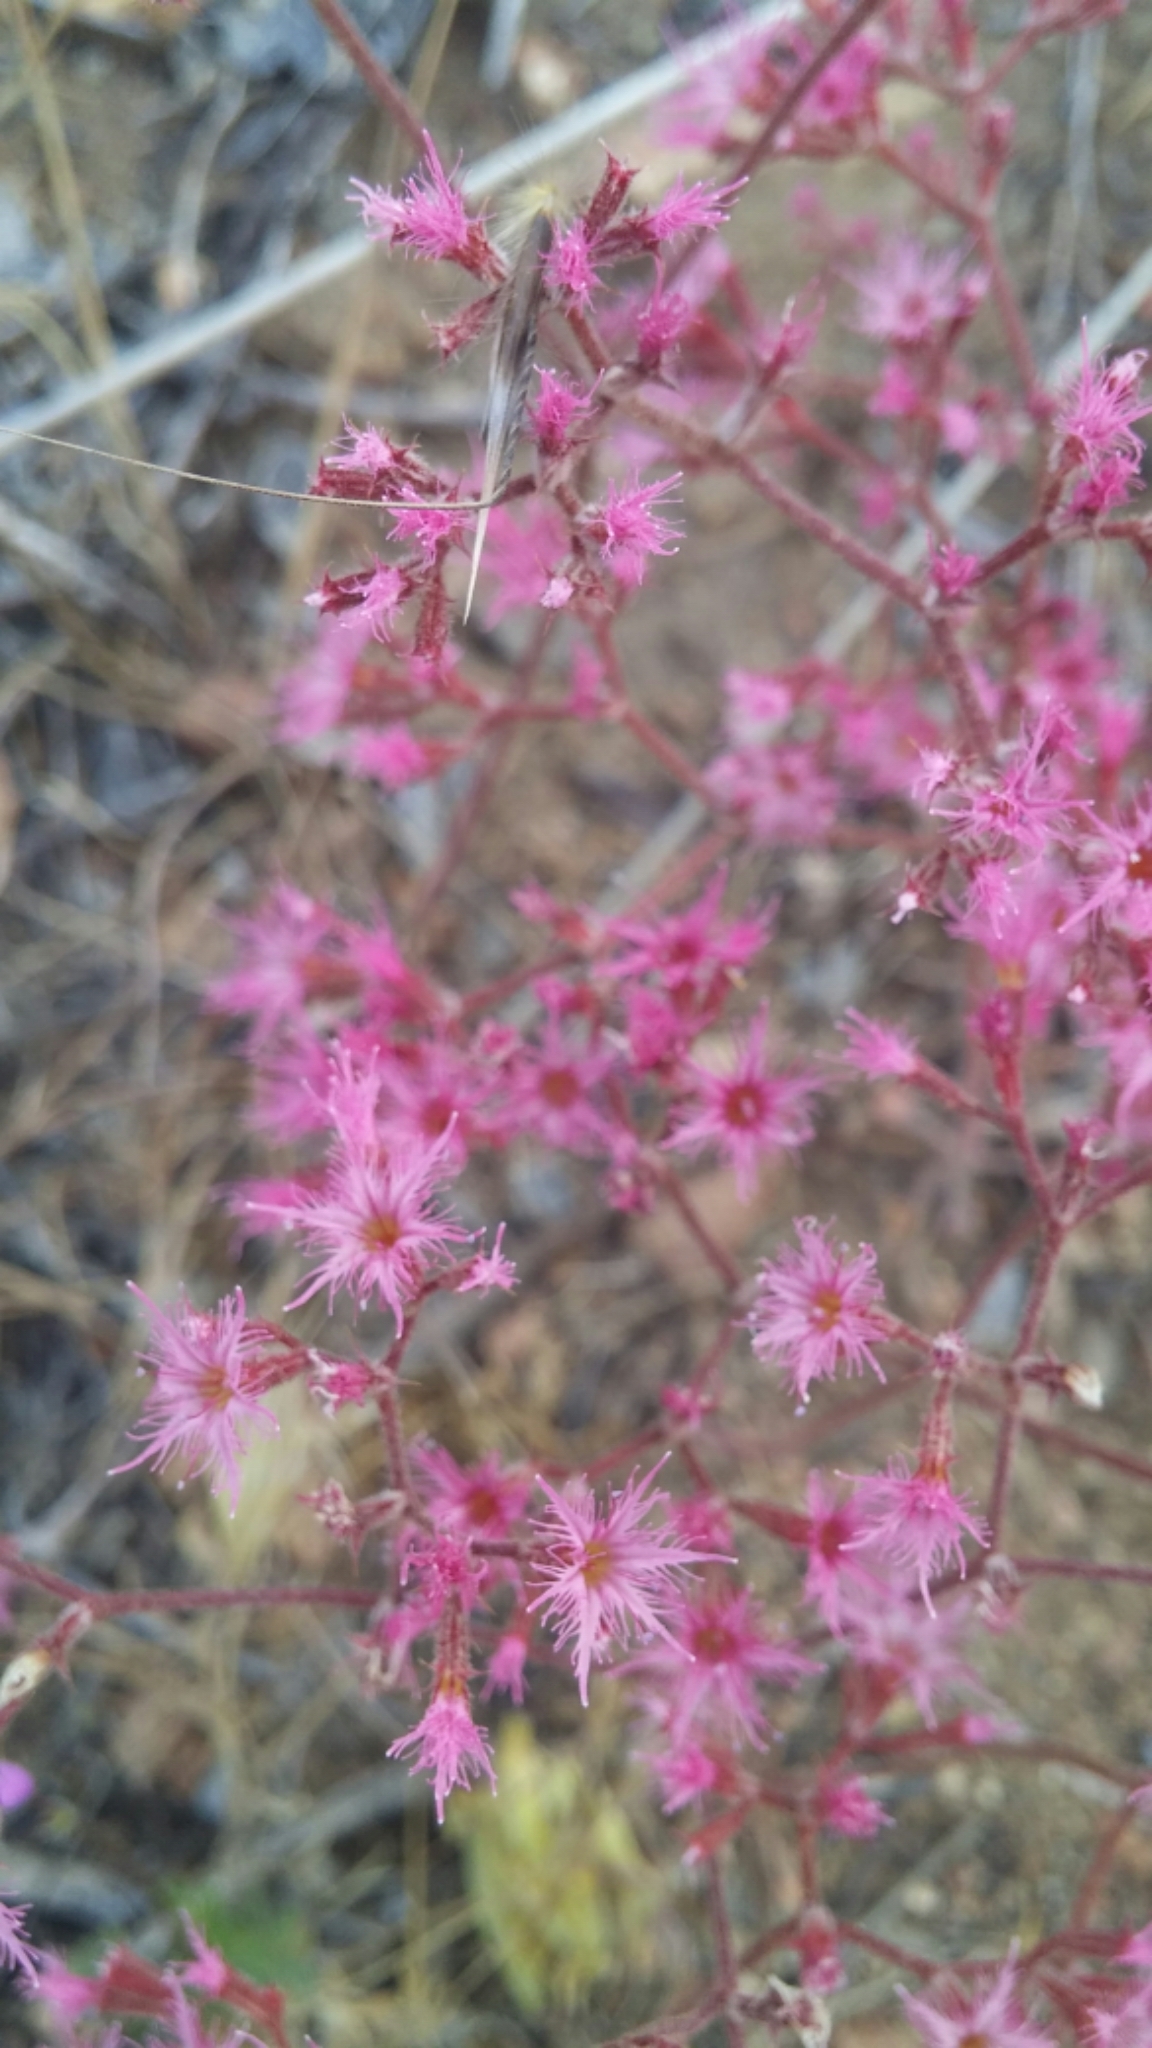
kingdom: Plantae
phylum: Tracheophyta
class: Magnoliopsida
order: Caryophyllales
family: Polygonaceae
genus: Chorizanthe
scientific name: Chorizanthe fimbriata
